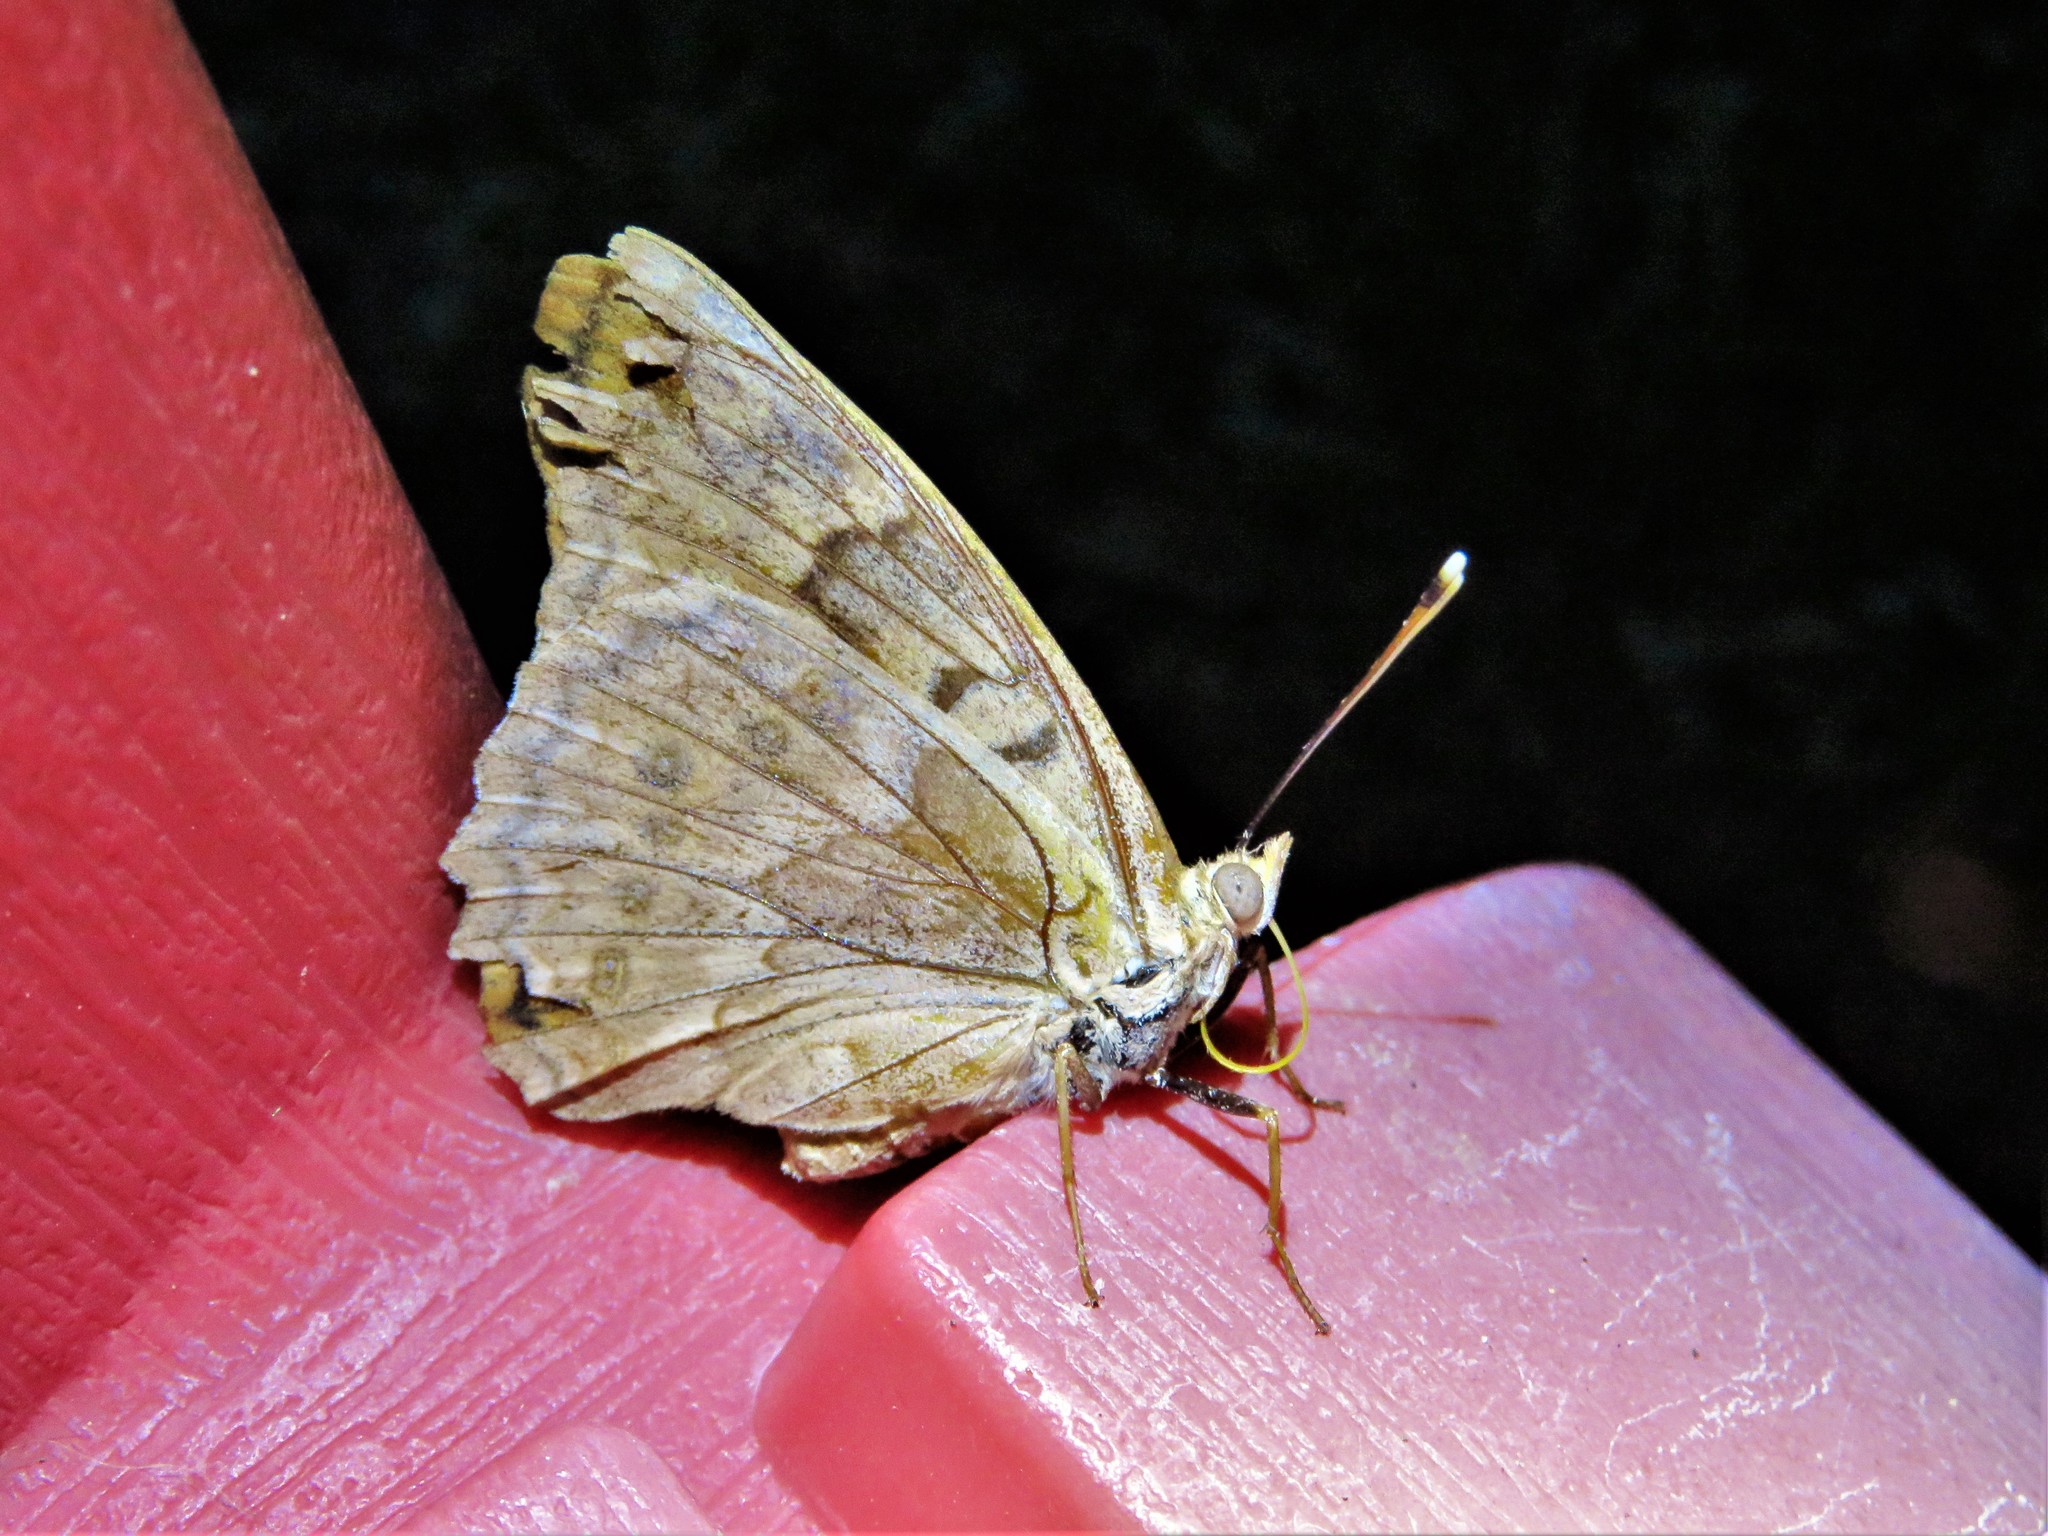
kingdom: Animalia
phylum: Arthropoda
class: Insecta
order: Lepidoptera
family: Nymphalidae
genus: Asterocampa
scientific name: Asterocampa clyton
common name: Tawny emperor
